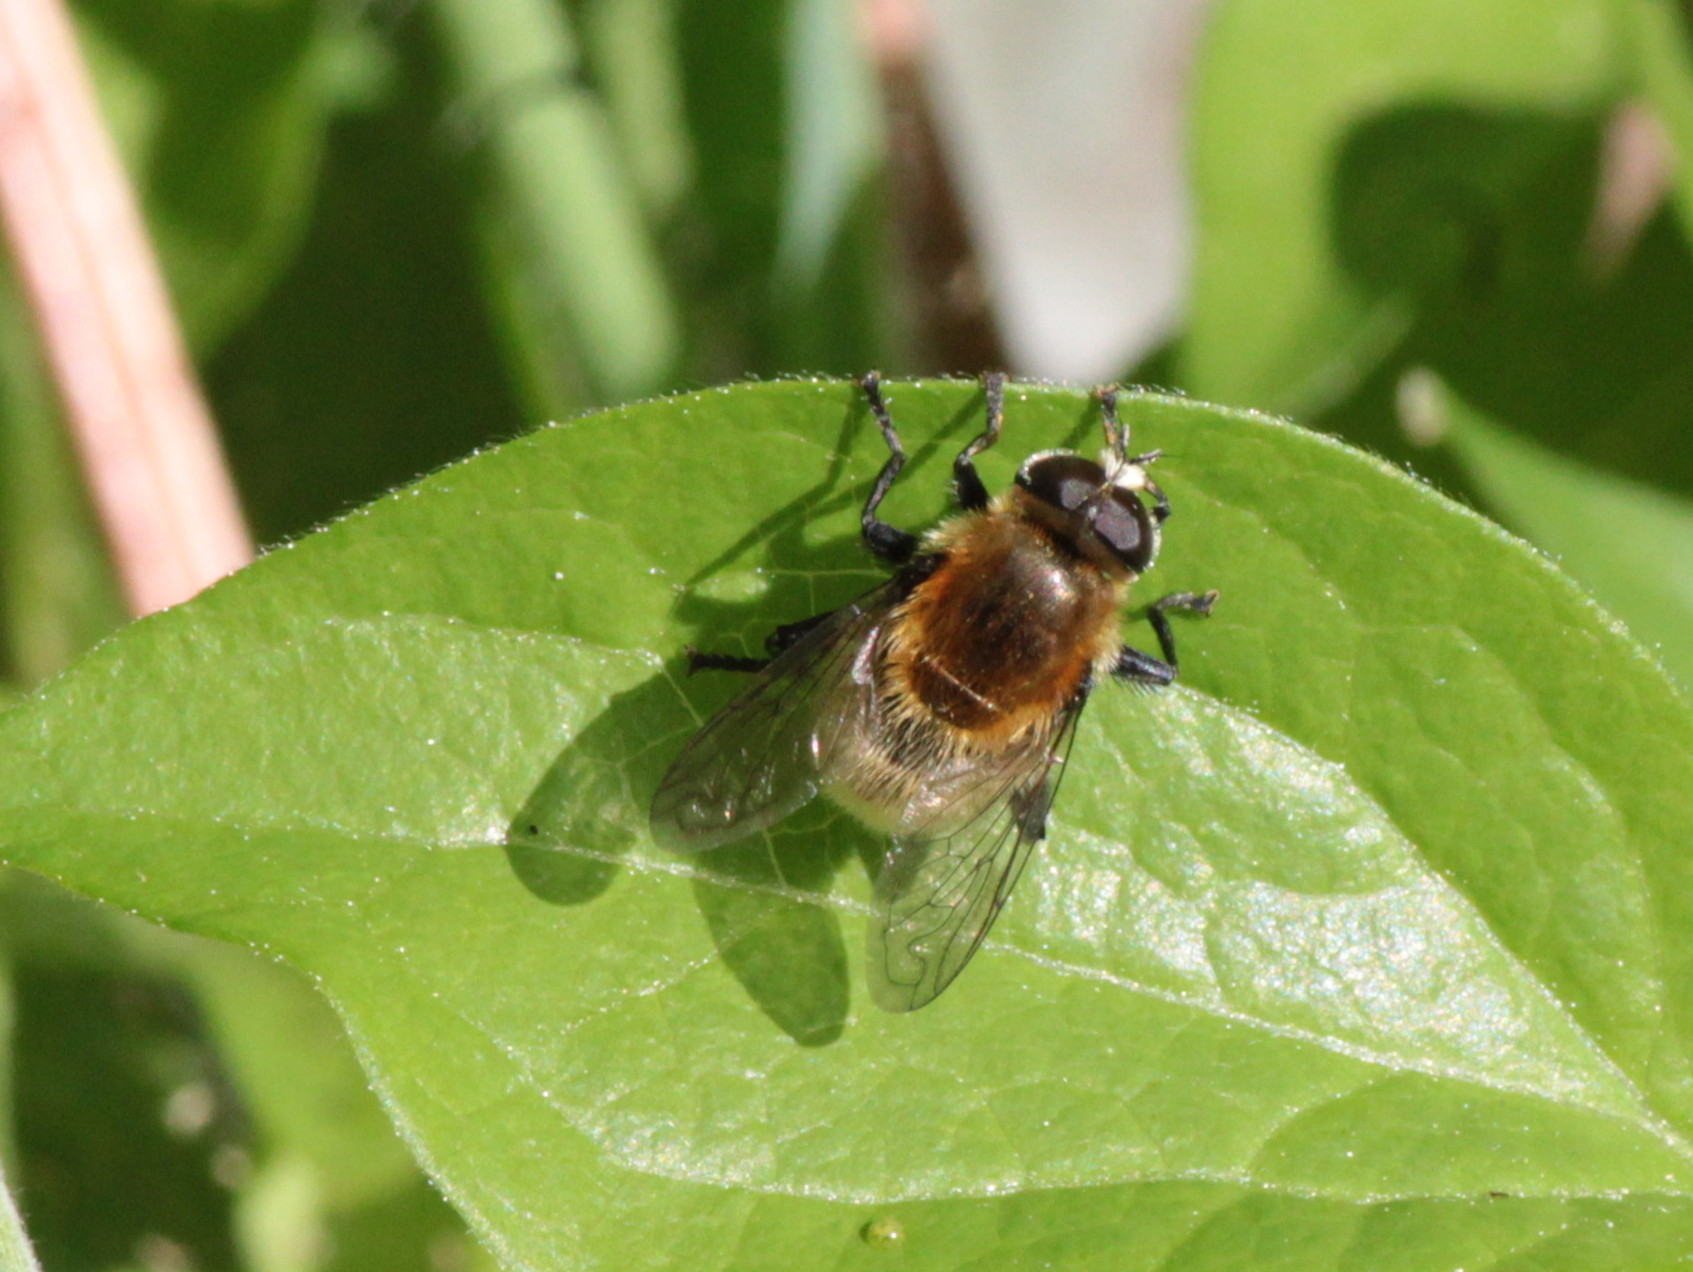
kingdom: Animalia
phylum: Arthropoda
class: Insecta
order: Diptera
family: Syrphidae
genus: Merodon
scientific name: Merodon equestris
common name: Greater bulb-fly
